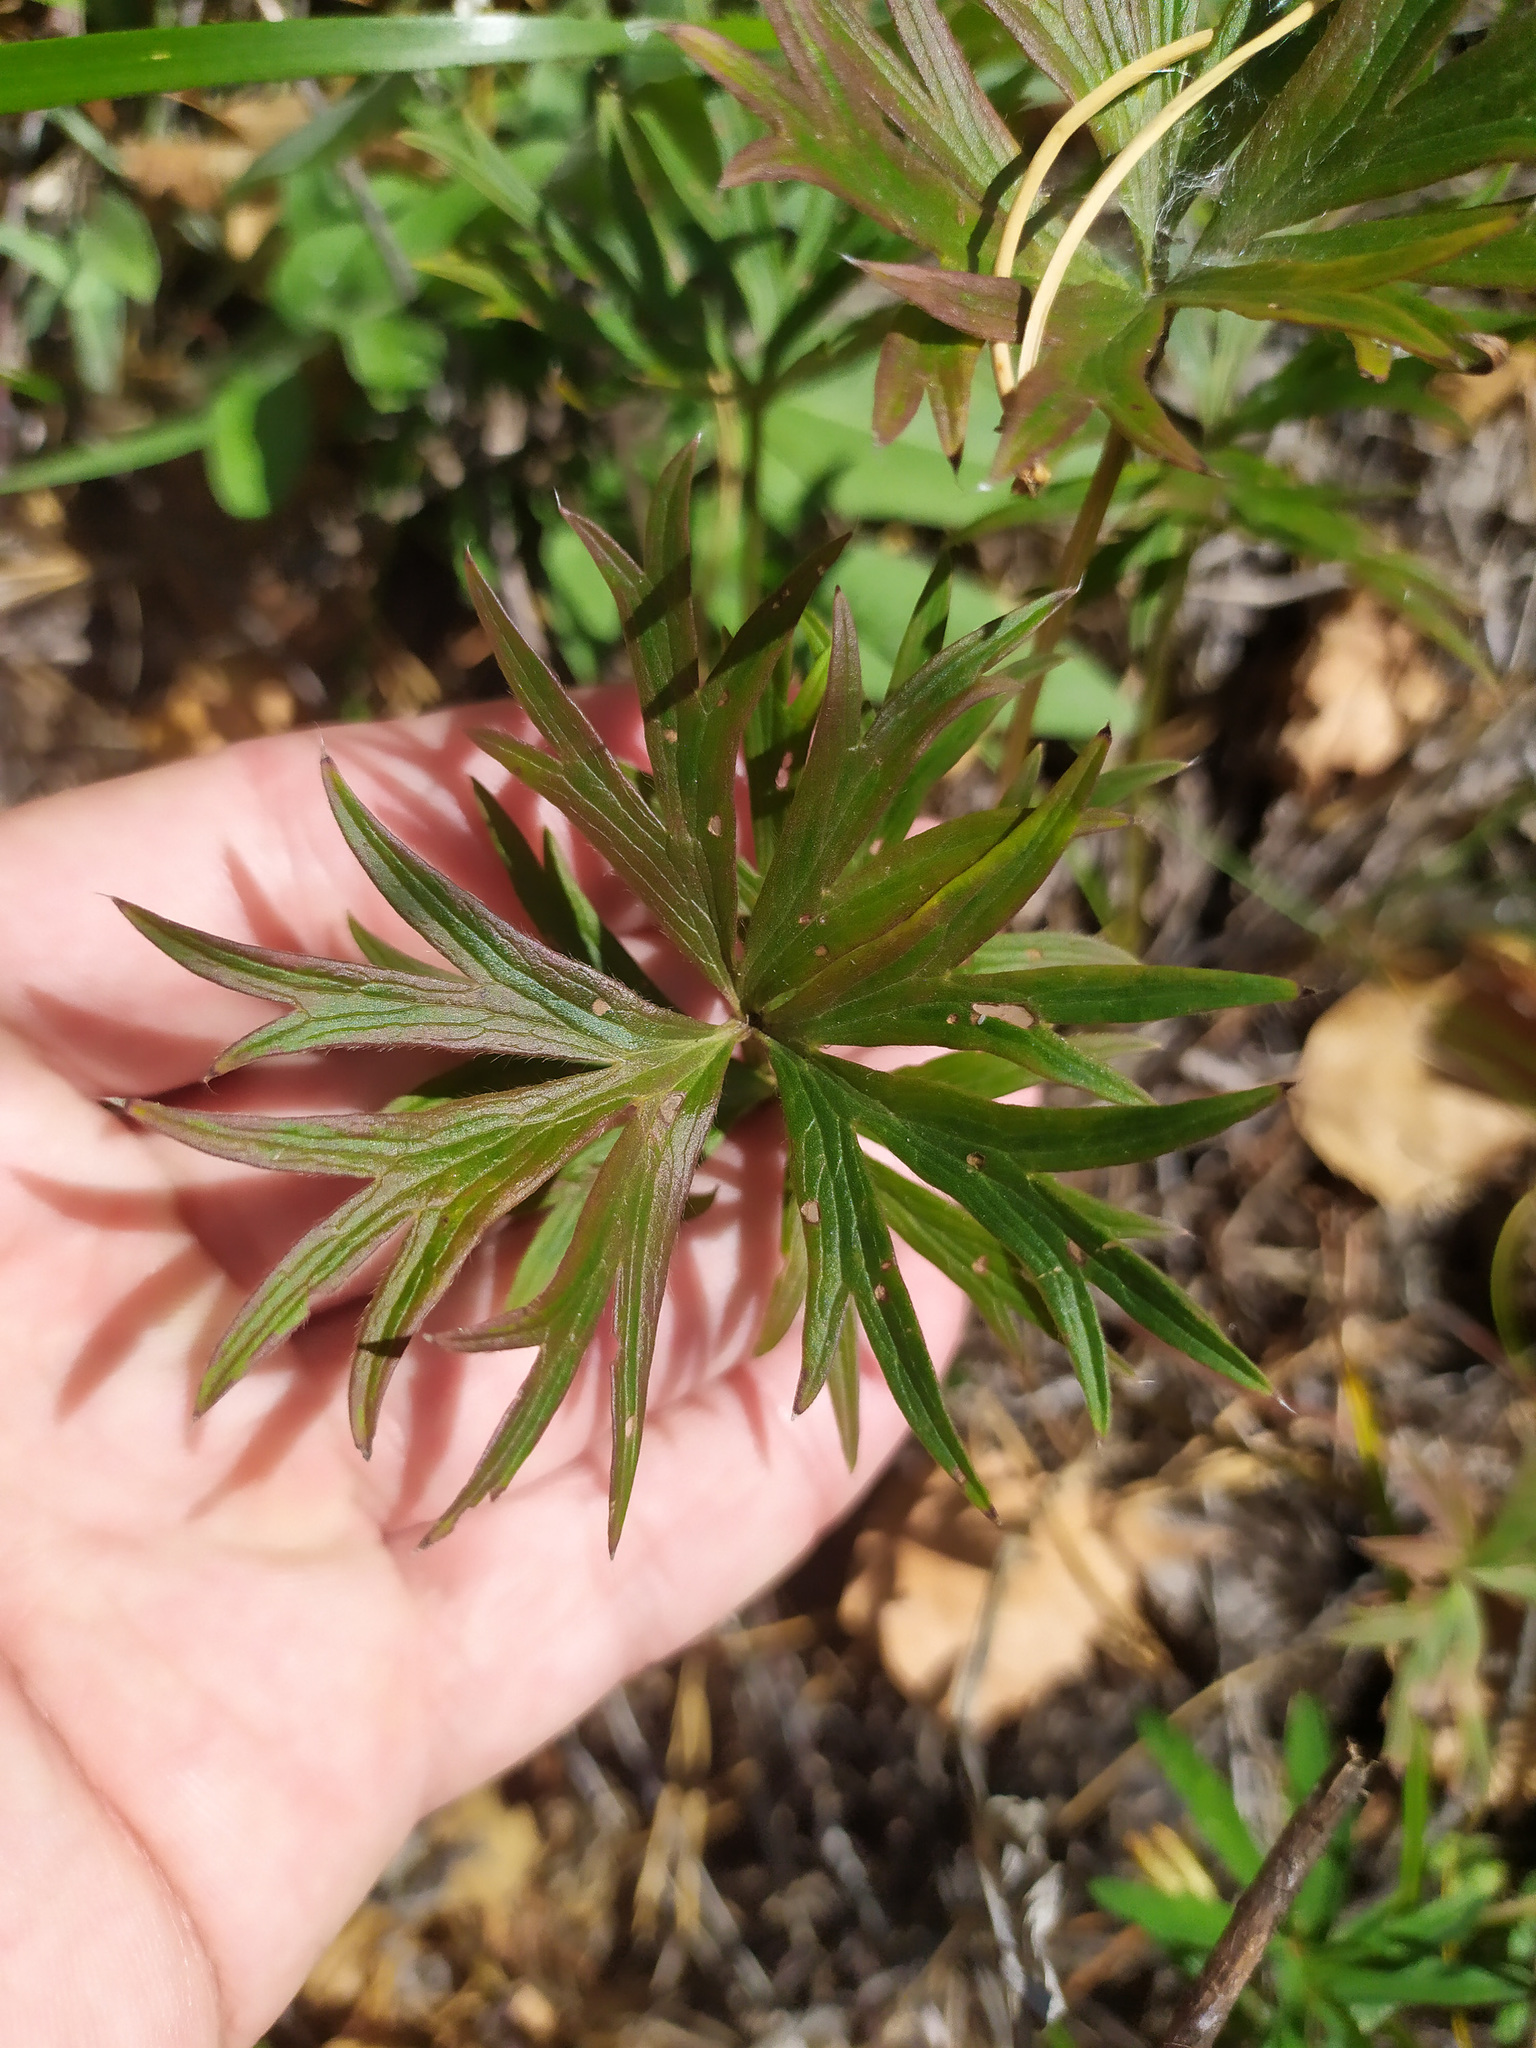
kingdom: Plantae
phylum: Tracheophyta
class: Magnoliopsida
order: Ranunculales
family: Ranunculaceae
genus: Pulsatilla
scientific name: Pulsatilla patens
